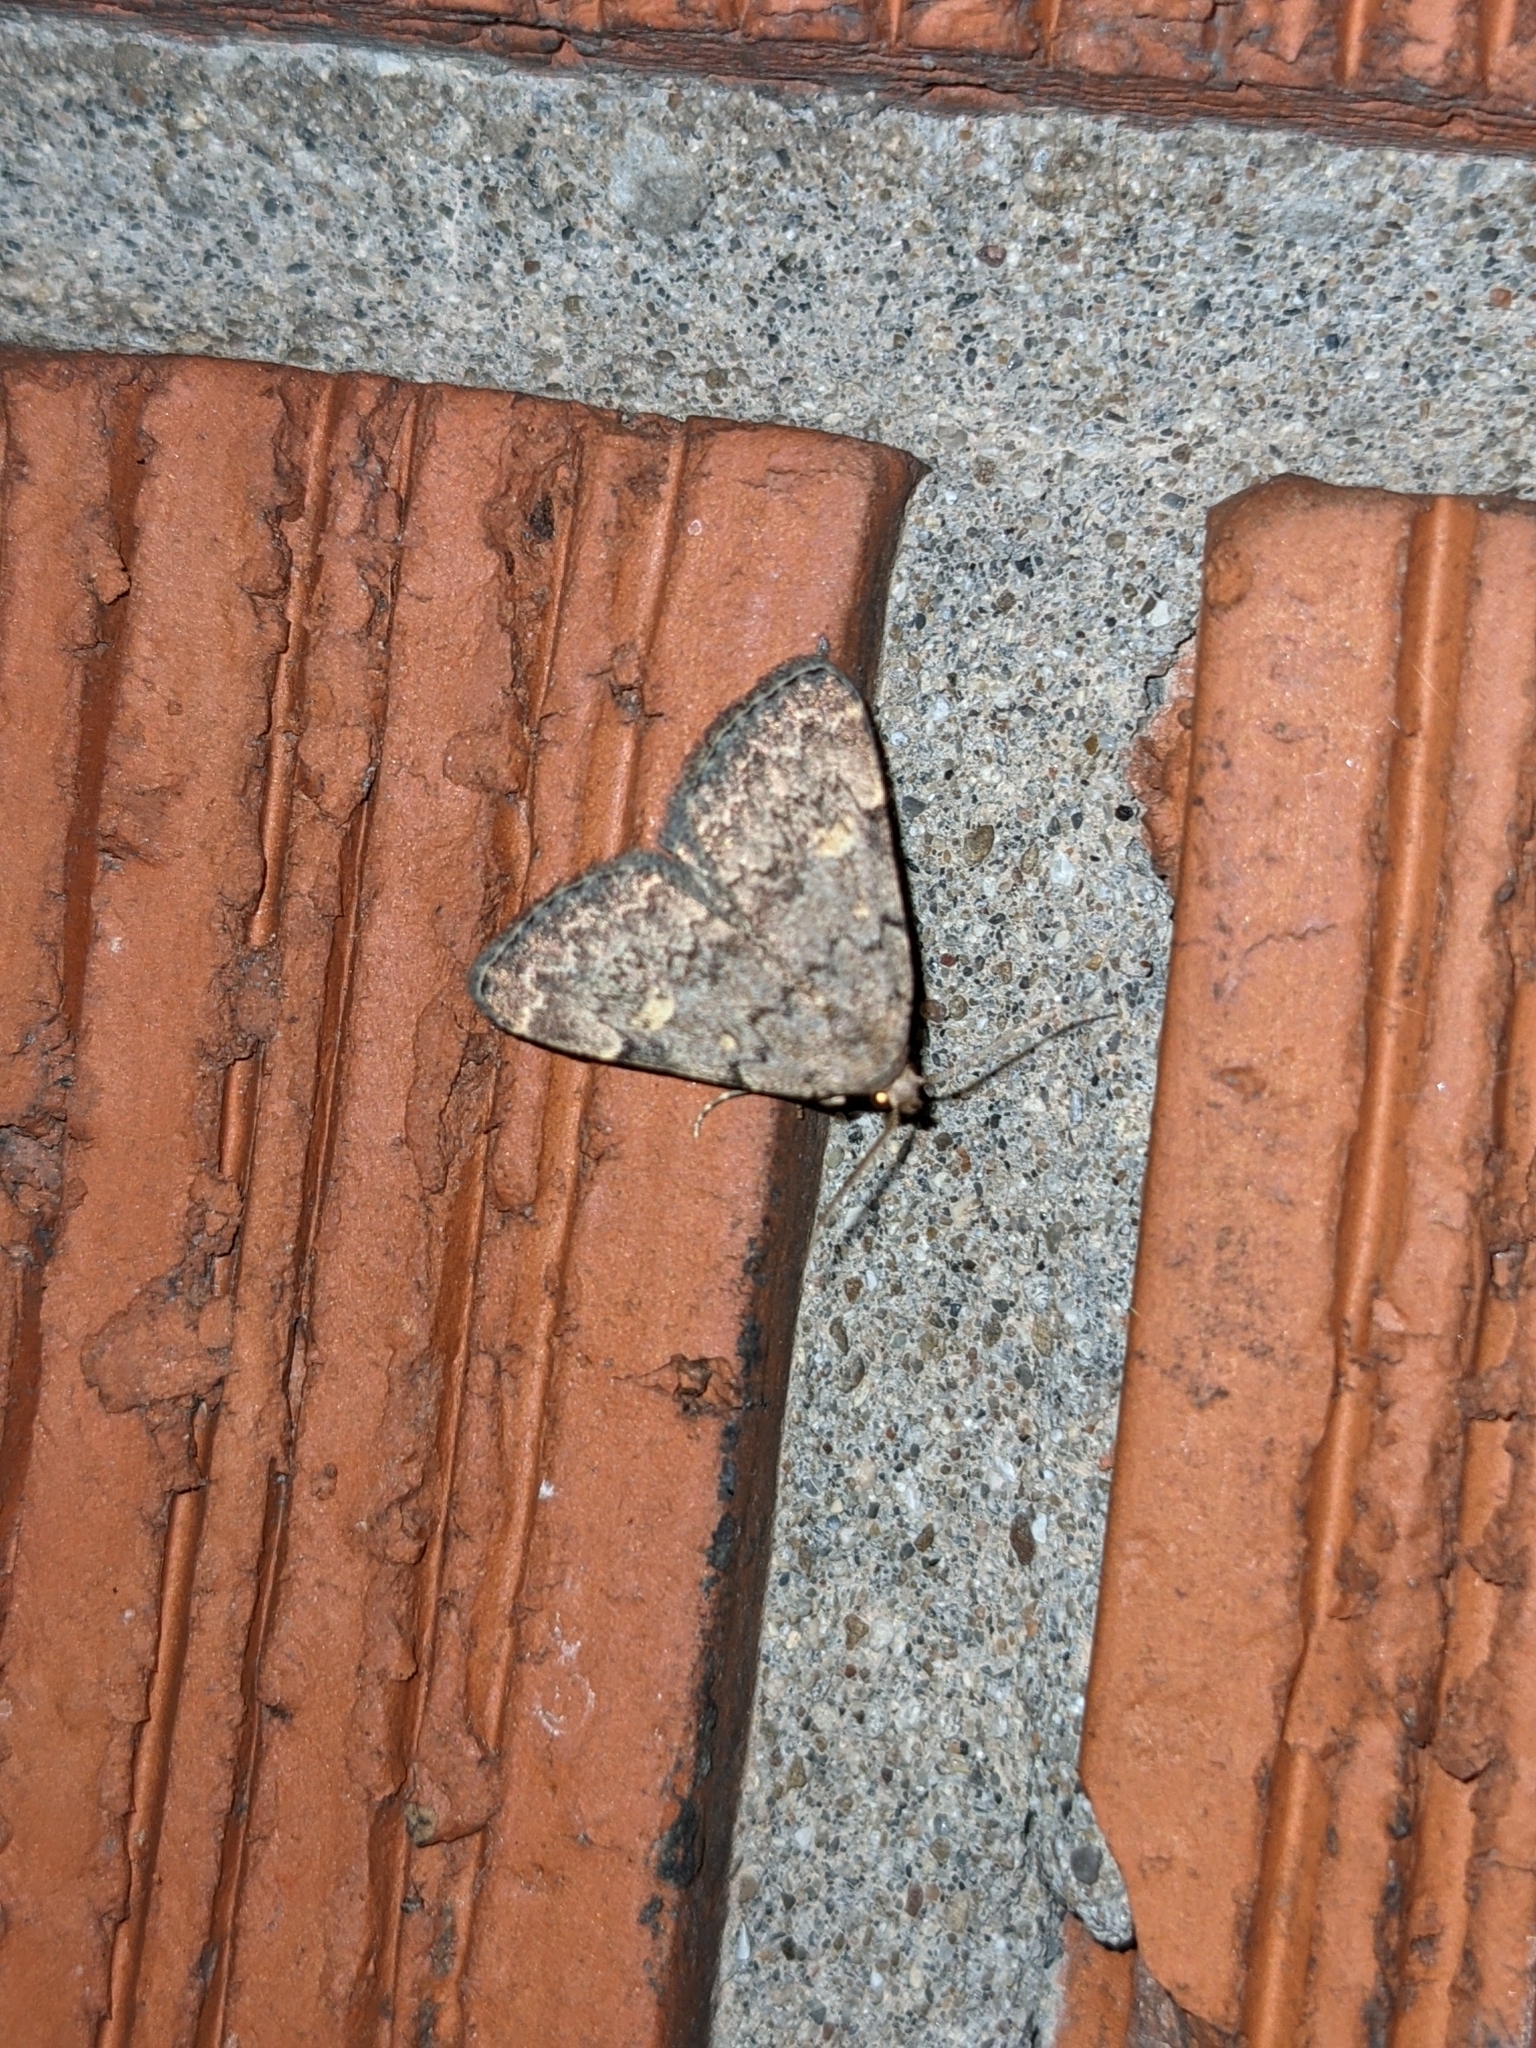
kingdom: Animalia
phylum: Arthropoda
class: Insecta
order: Lepidoptera
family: Erebidae
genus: Idia
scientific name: Idia aemula
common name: Common idia moth
